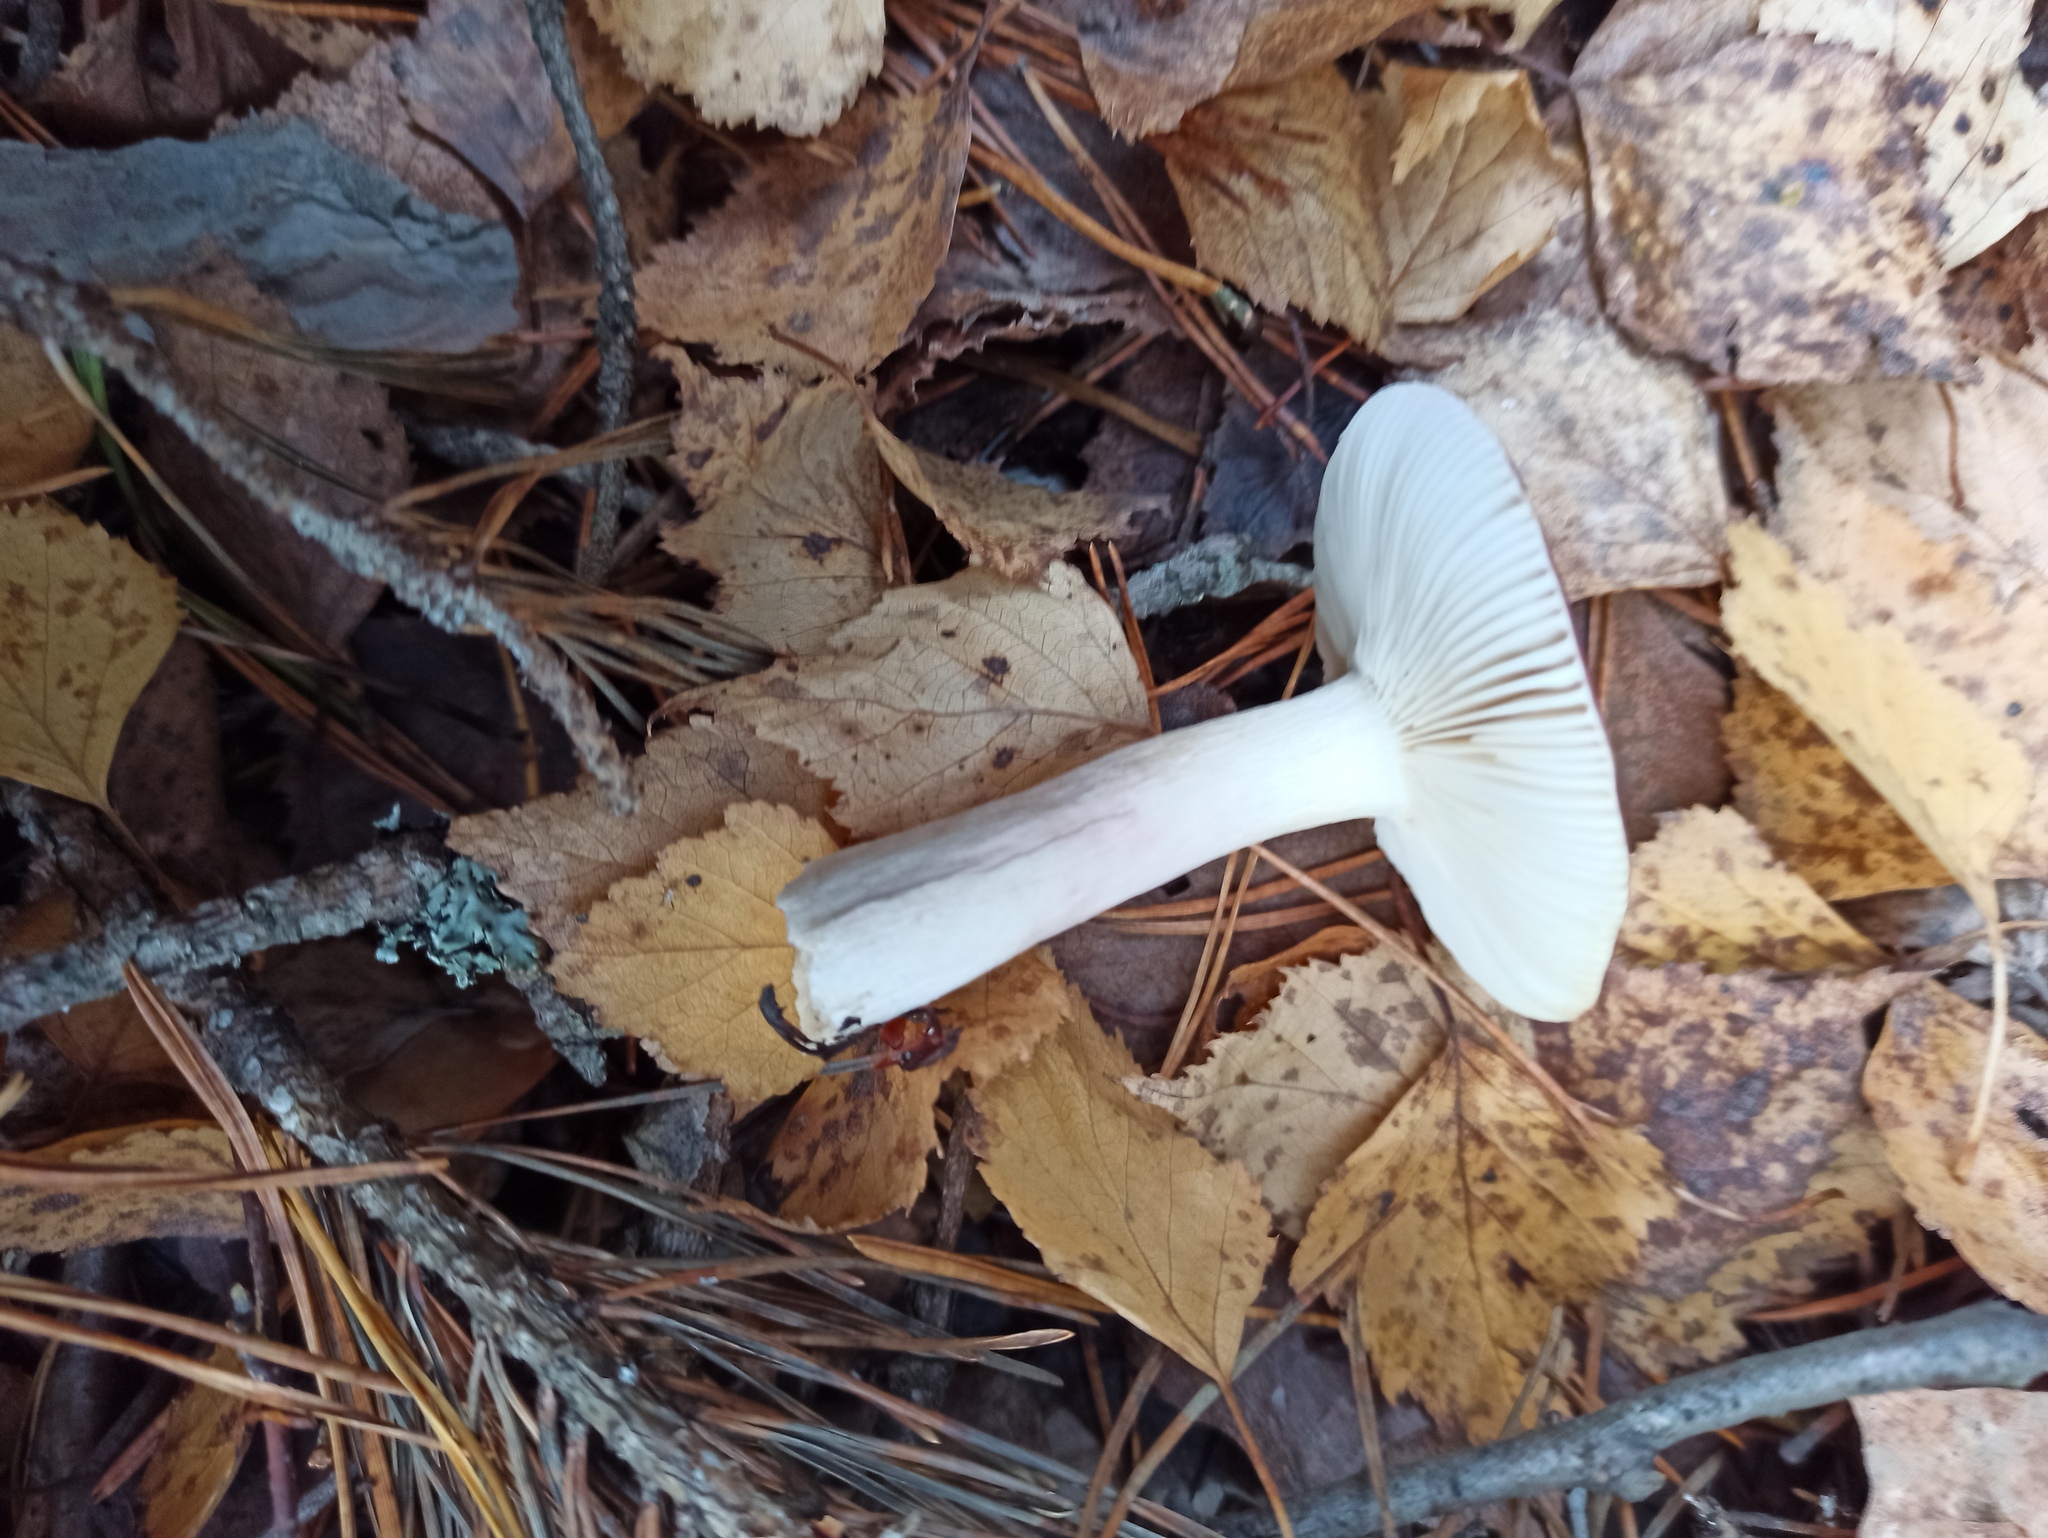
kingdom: Fungi
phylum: Basidiomycota
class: Agaricomycetes
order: Russulales
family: Russulaceae
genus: Russula
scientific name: Russula xerampelina
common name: Crab brittlegill
